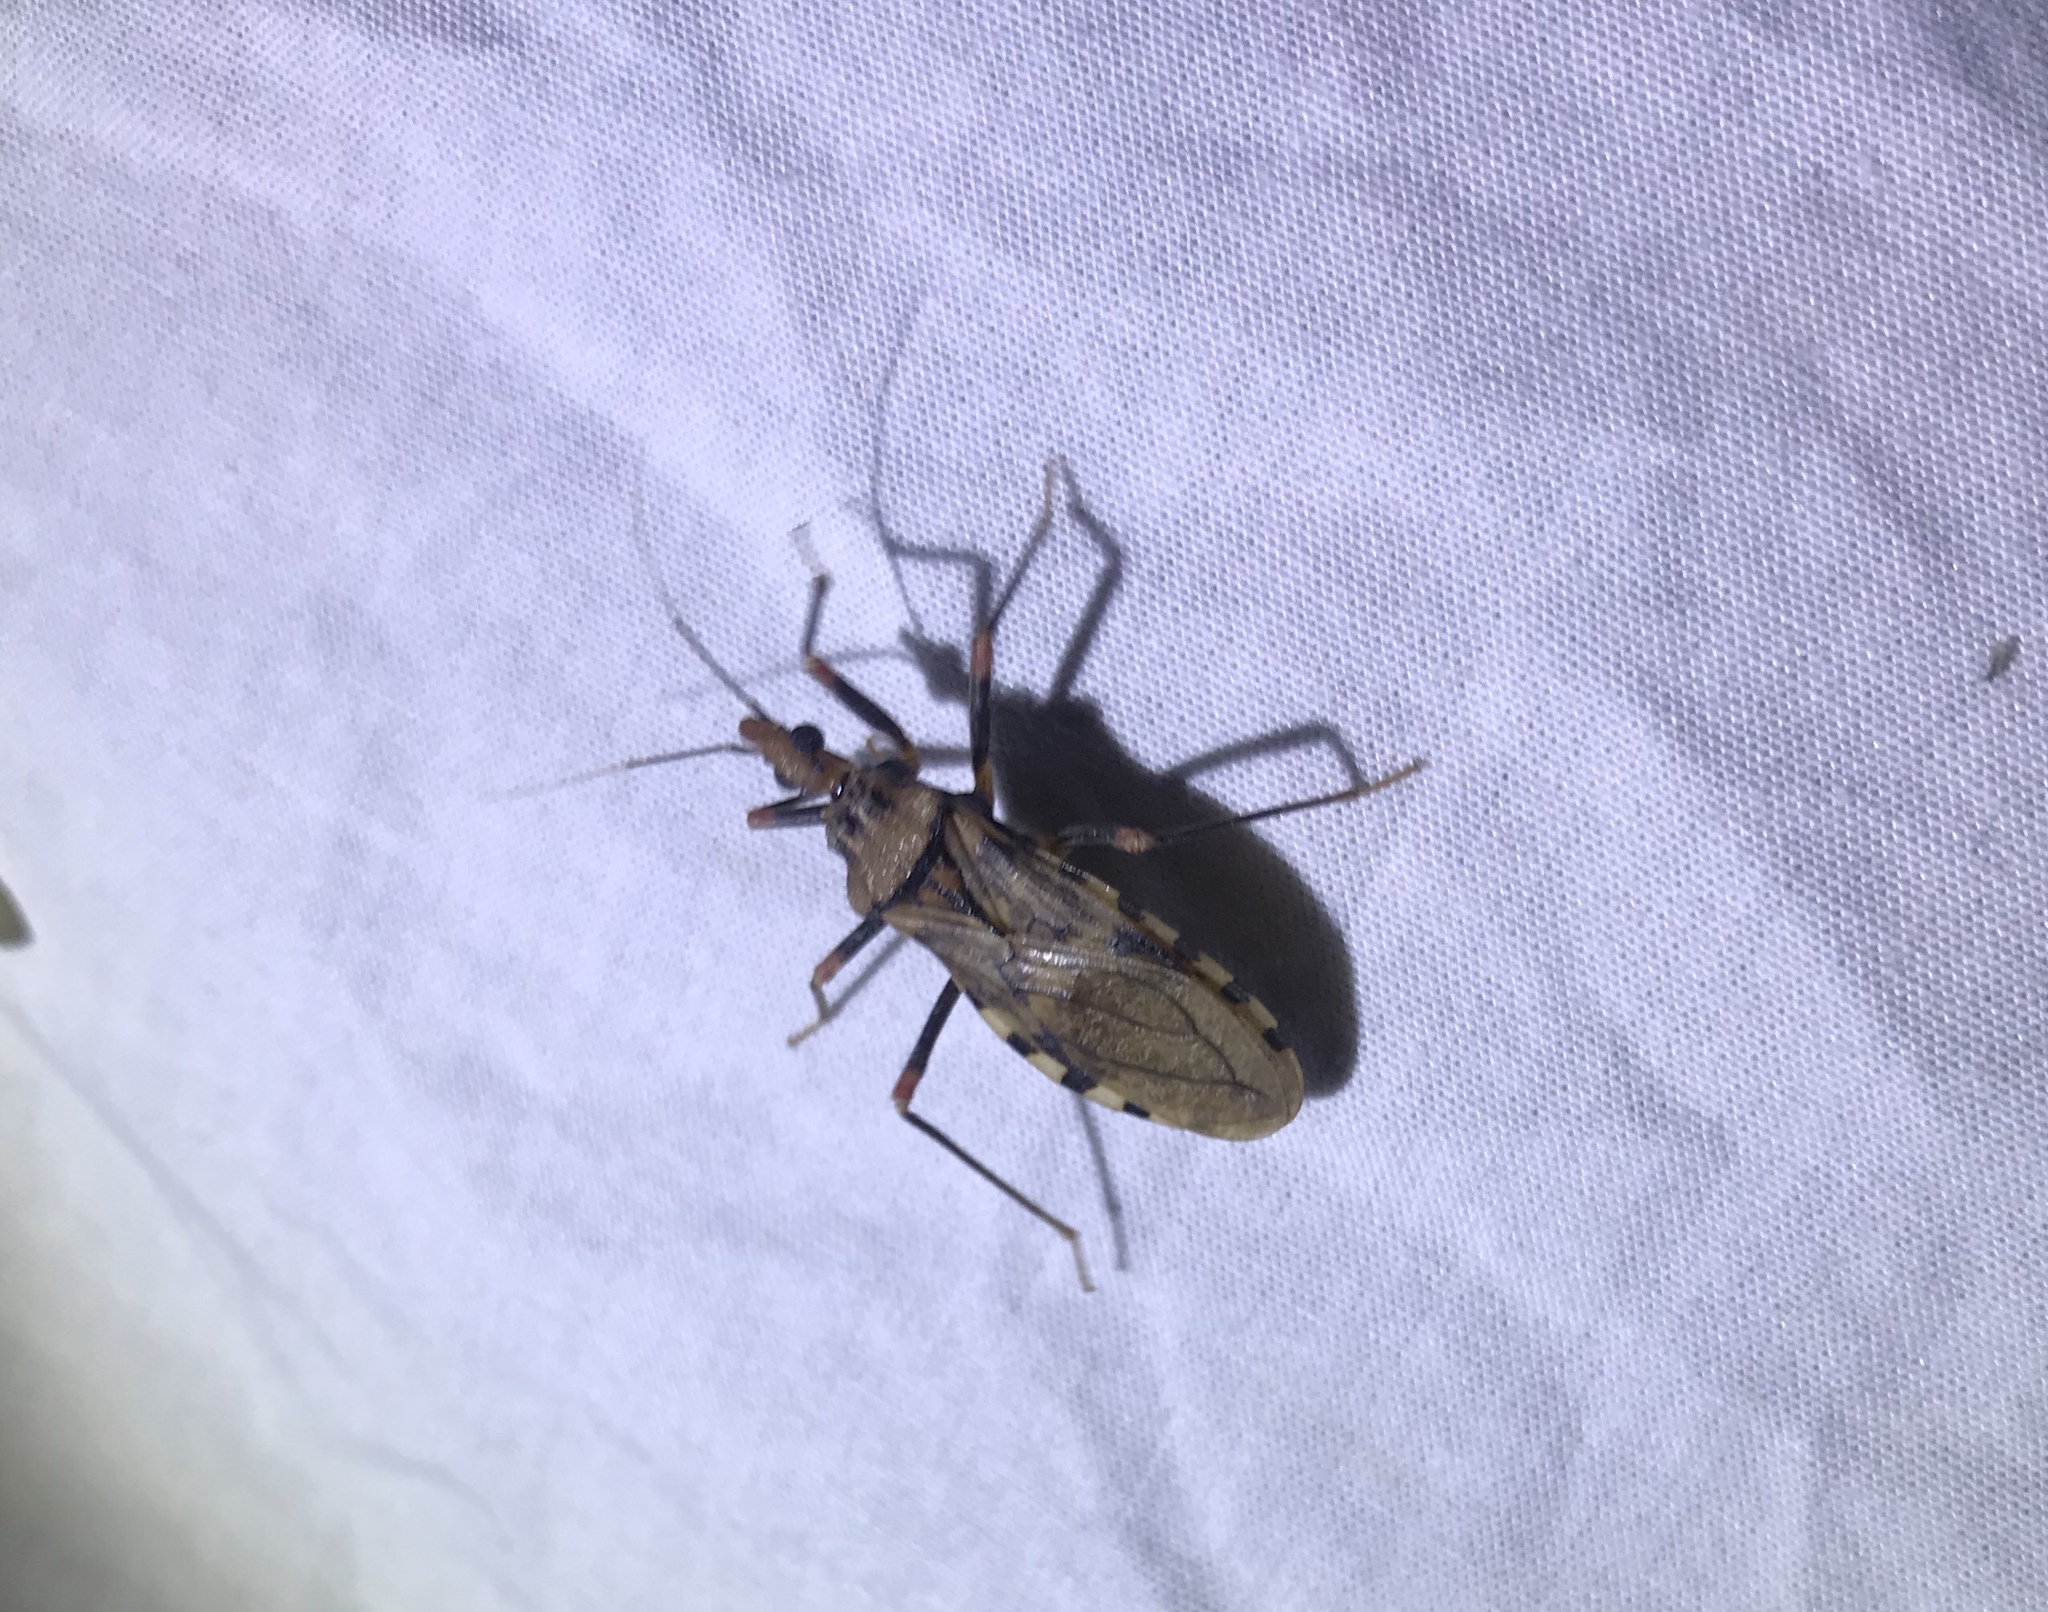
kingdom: Animalia
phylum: Arthropoda
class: Insecta
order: Hemiptera
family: Reduviidae
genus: Panstrongylus
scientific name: Panstrongylus geniculatus
